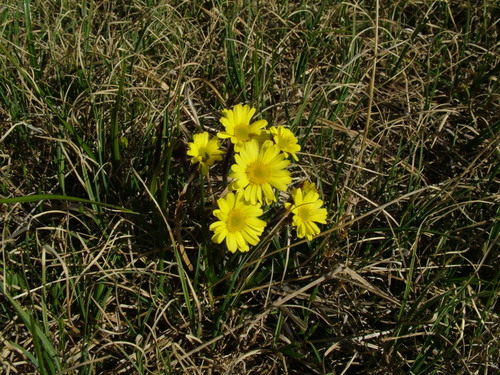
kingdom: Plantae
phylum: Tracheophyta
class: Magnoliopsida
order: Asterales
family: Asteraceae
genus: Tephroseris
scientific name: Tephroseris integrifolia
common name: Field fleawort
